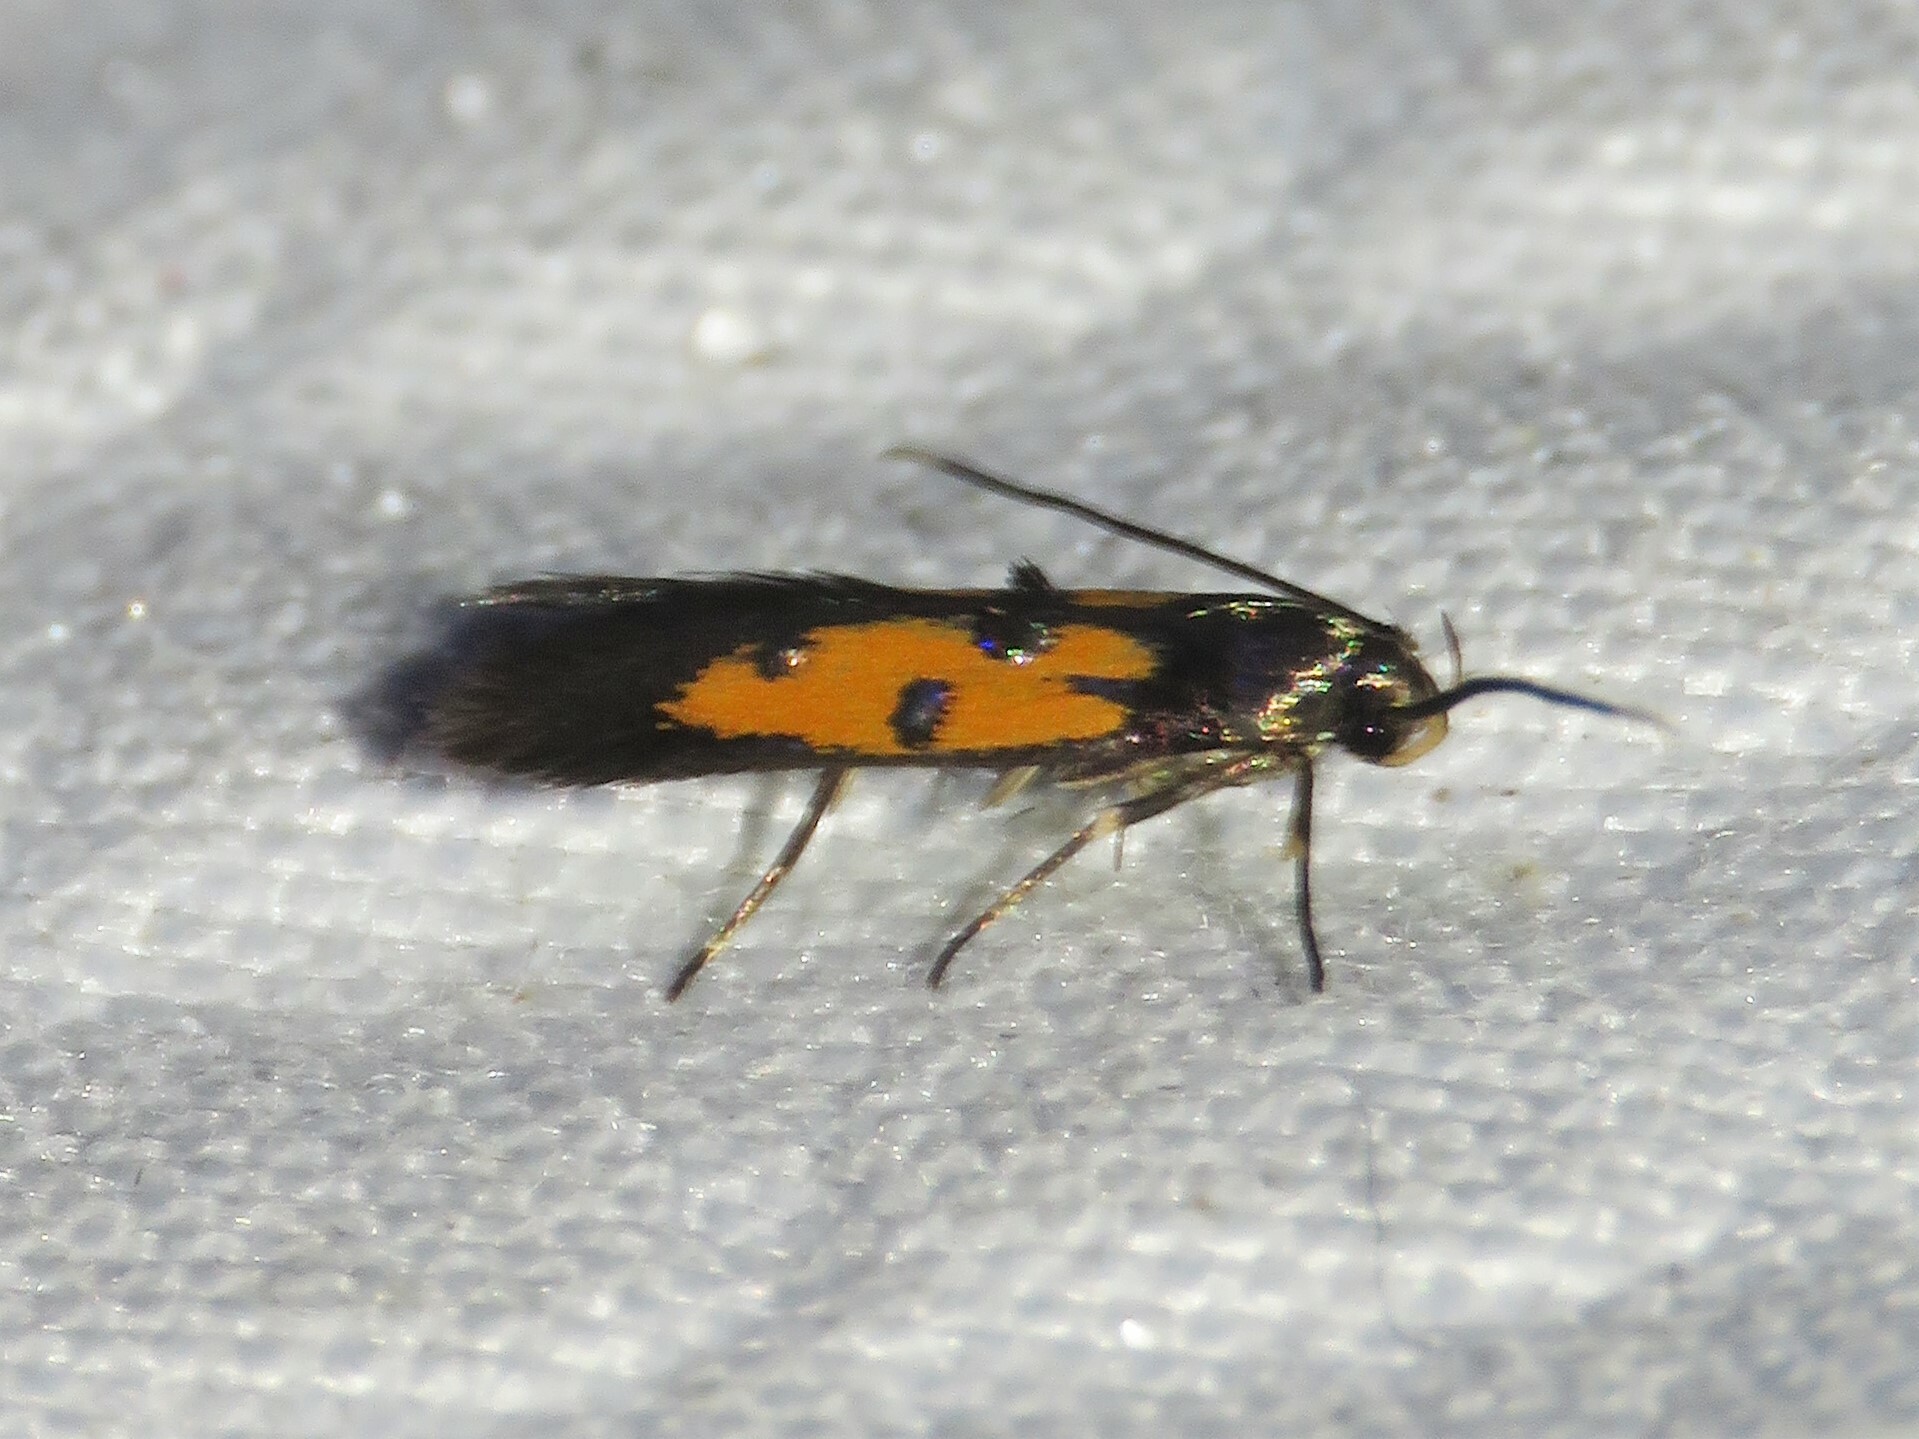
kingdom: Animalia
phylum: Arthropoda
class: Insecta
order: Lepidoptera
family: Elachistidae
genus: Chrysoclista
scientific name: Chrysoclista linneela
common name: Lime cosmet
